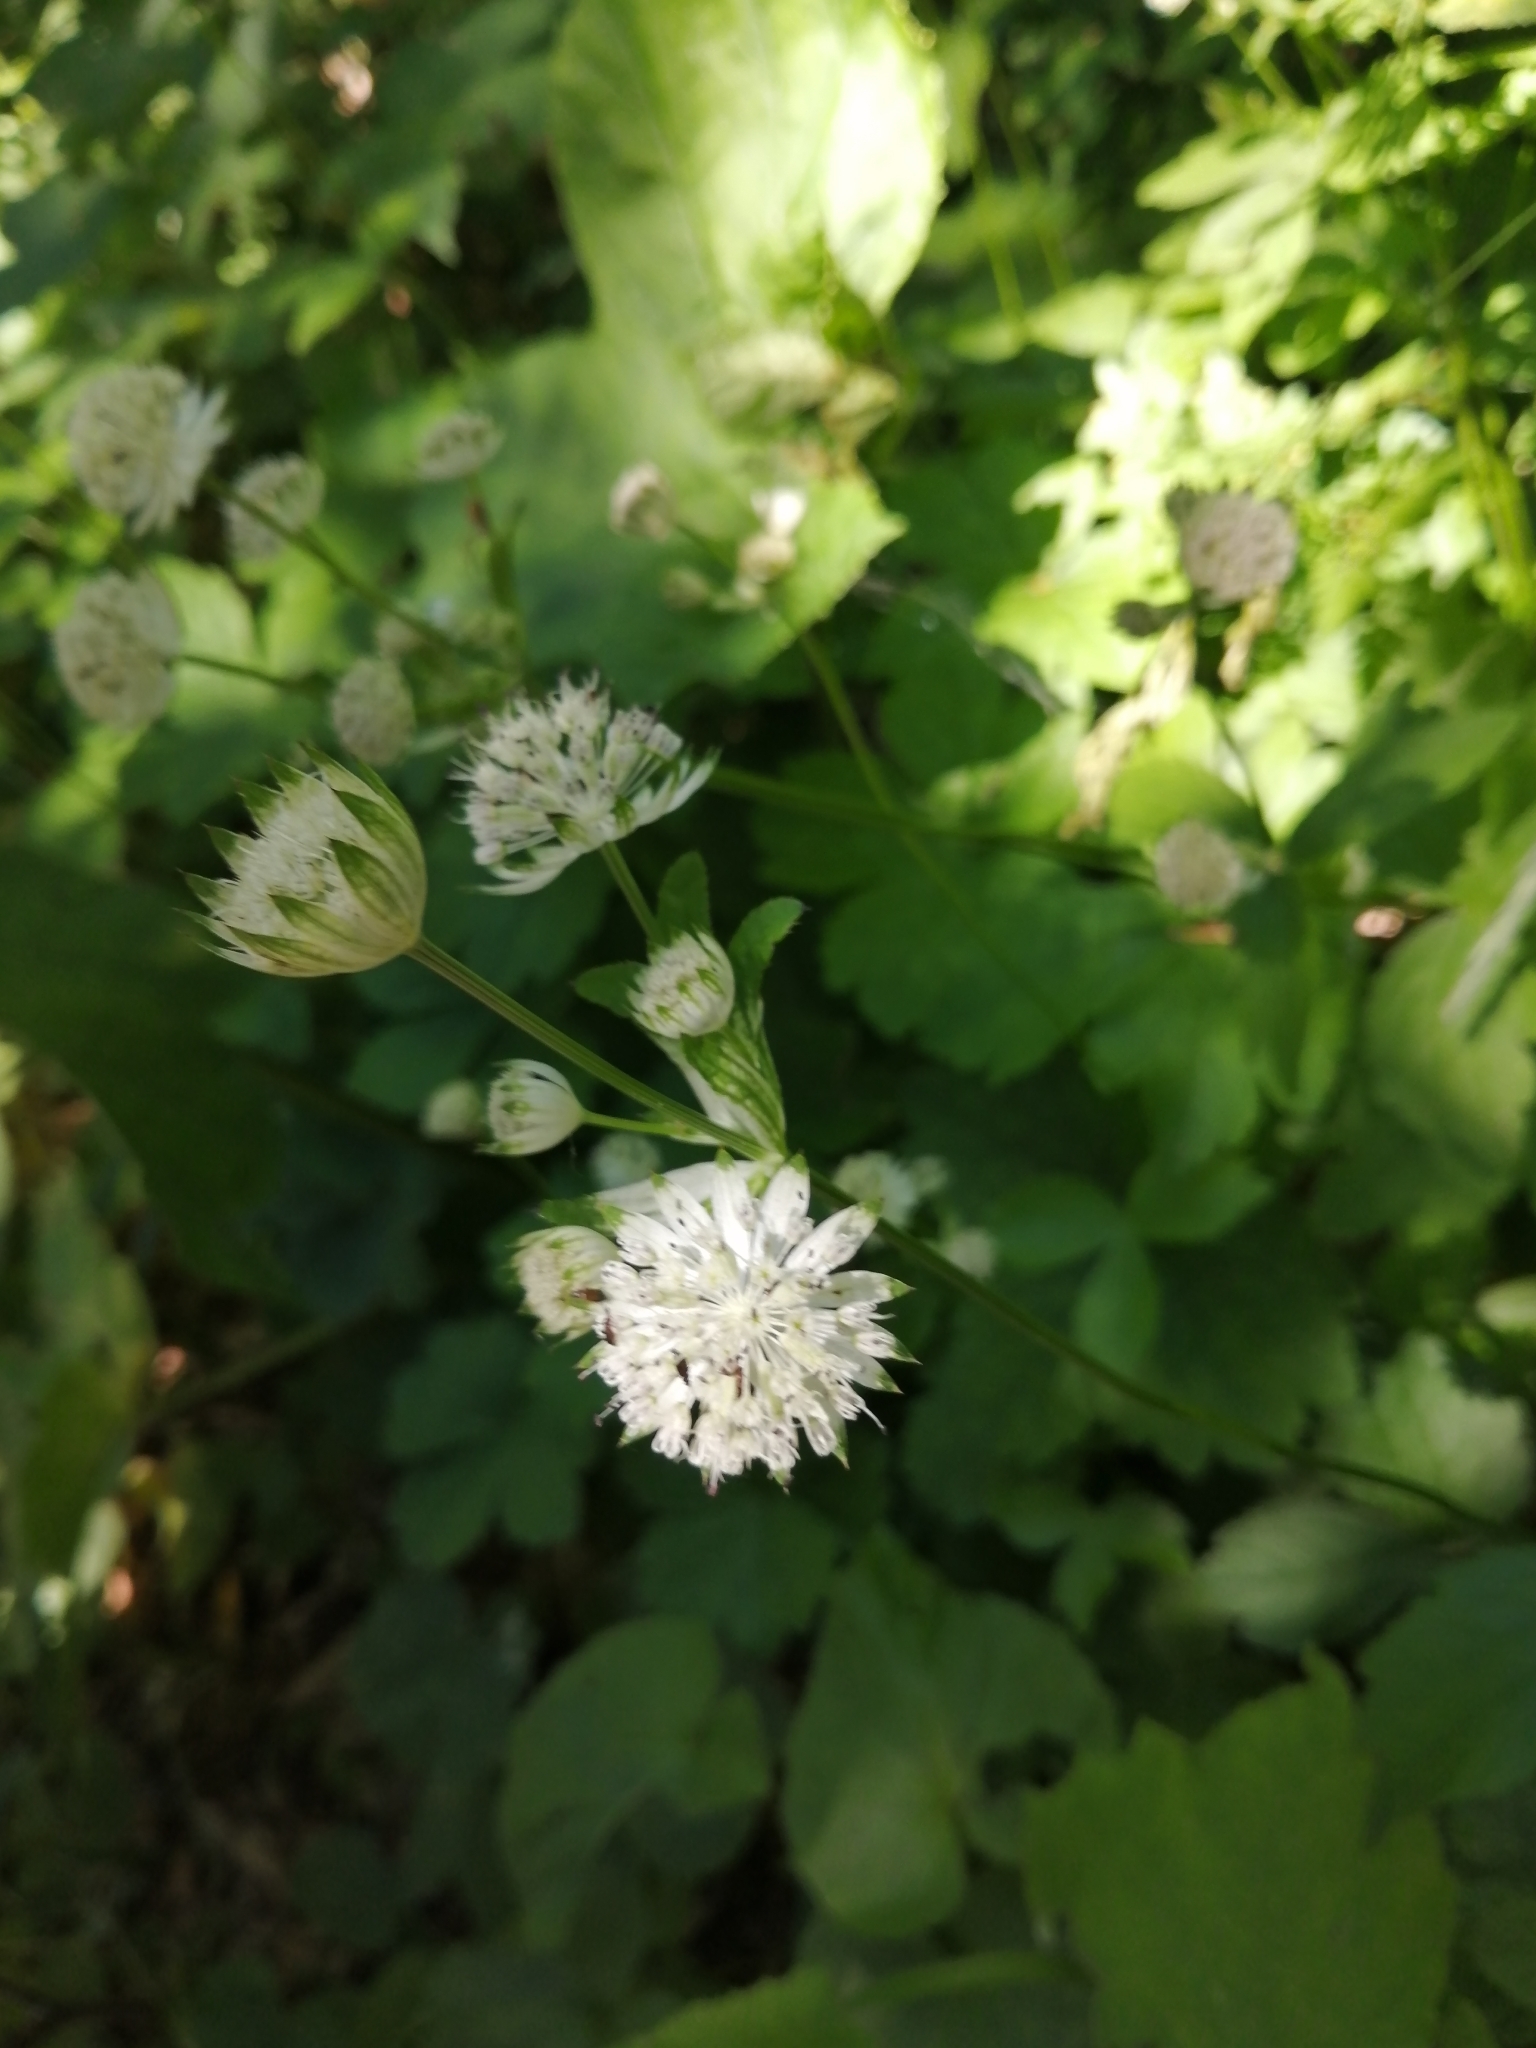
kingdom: Plantae
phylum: Tracheophyta
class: Magnoliopsida
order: Apiales
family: Apiaceae
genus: Astrantia
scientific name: Astrantia pontica
